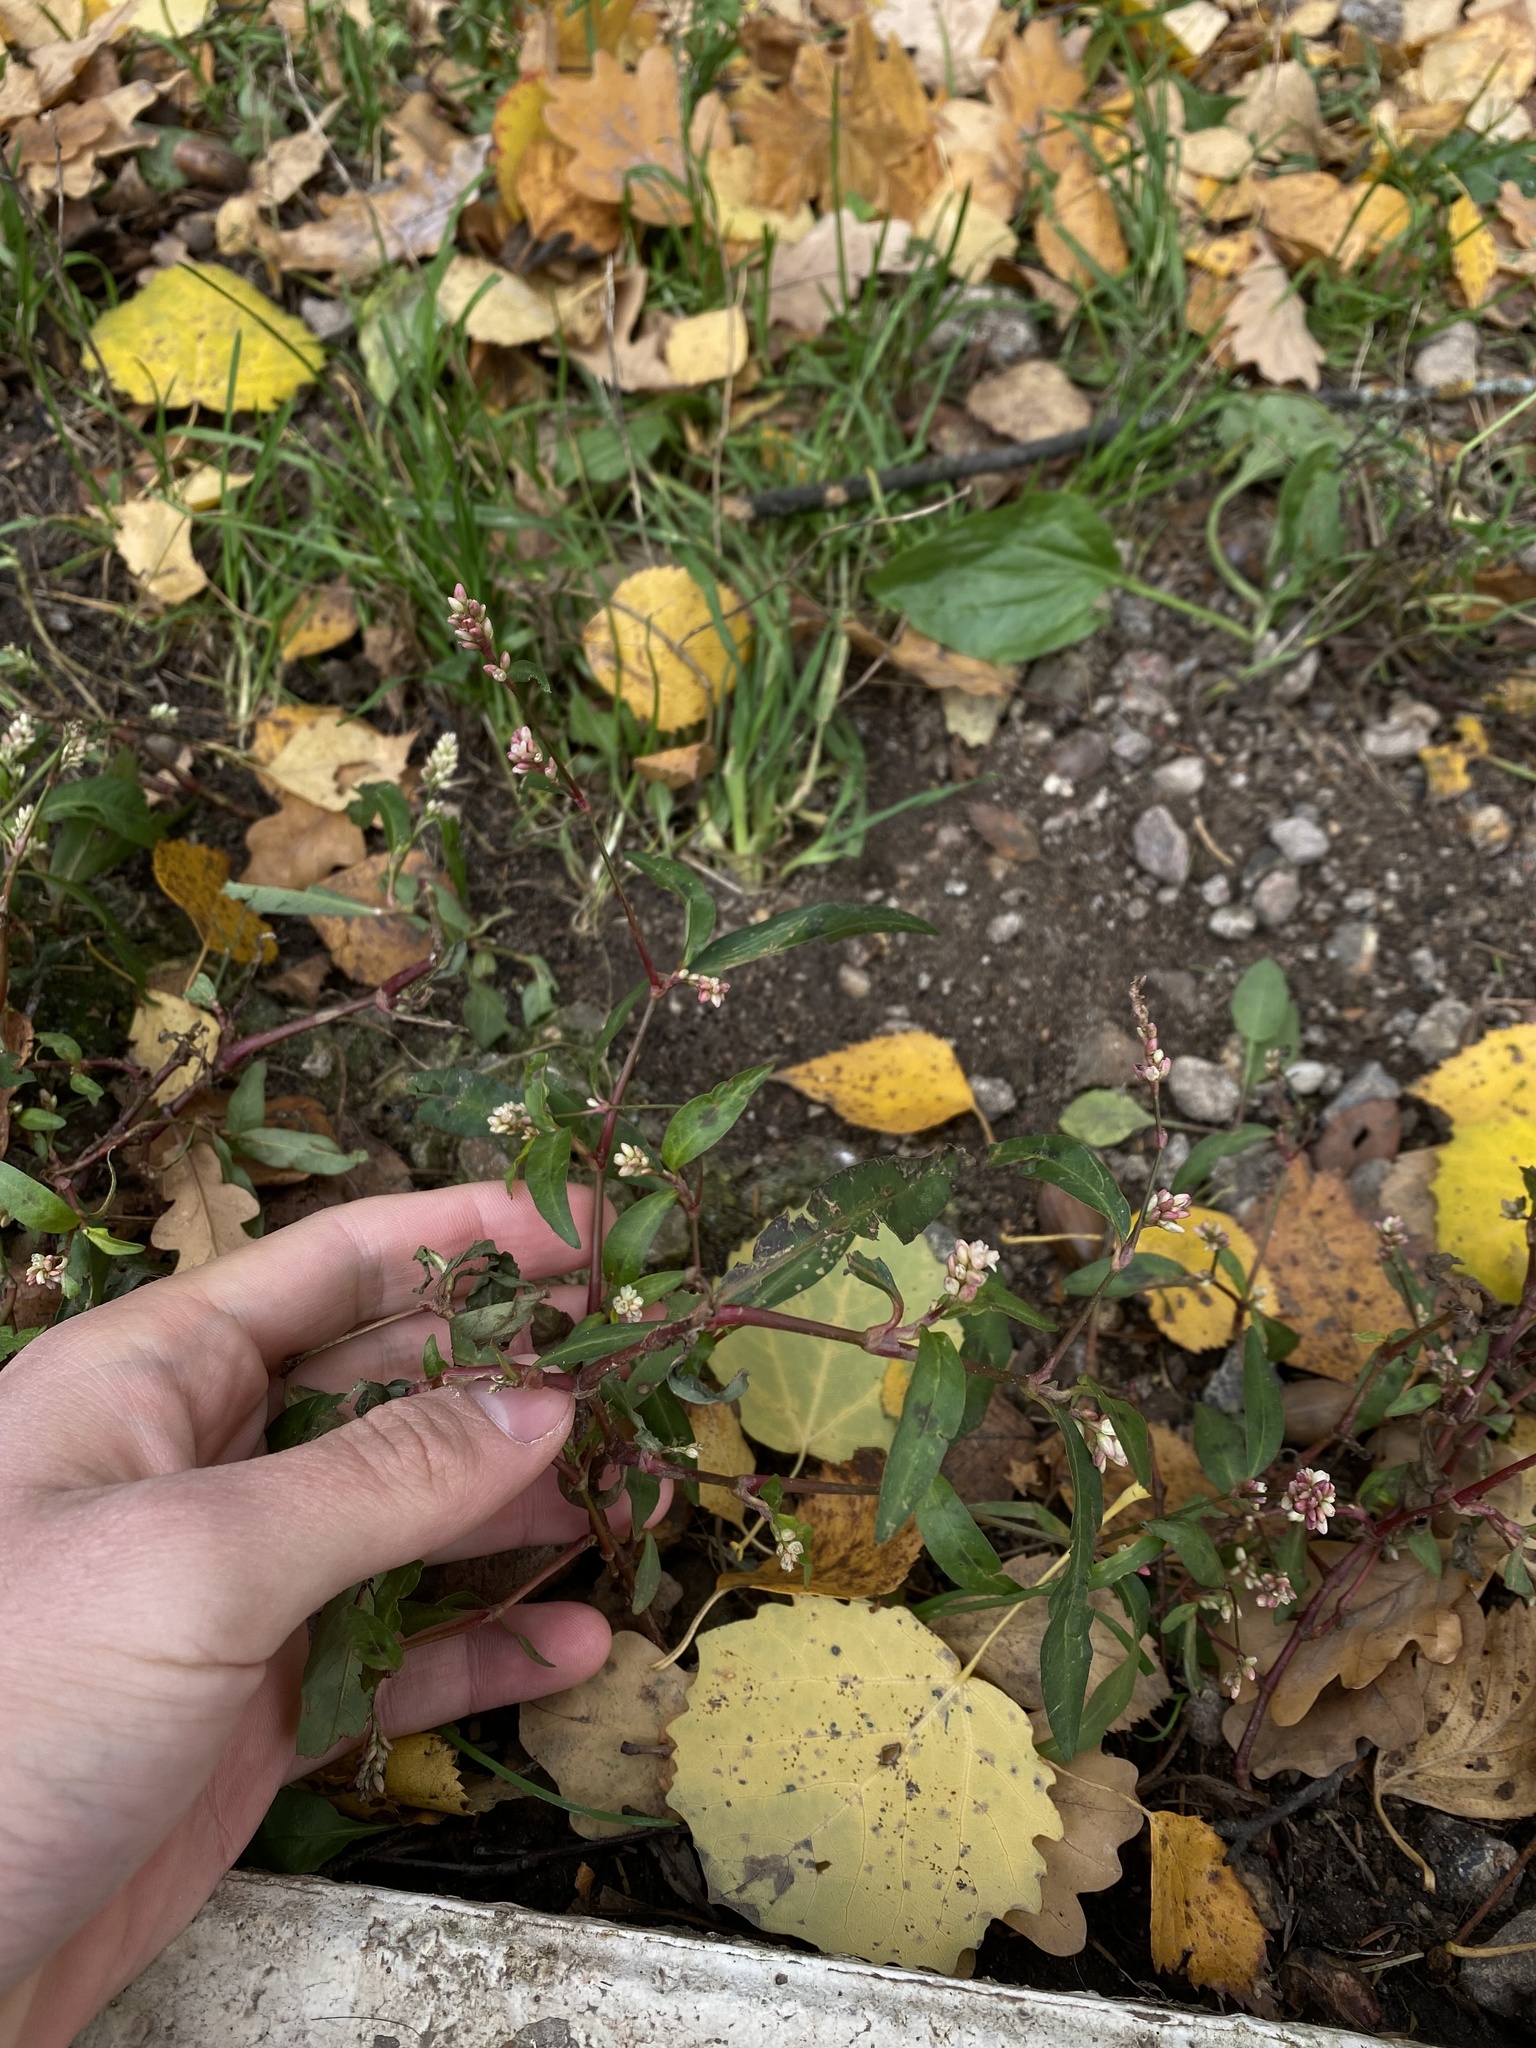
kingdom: Plantae
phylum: Tracheophyta
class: Magnoliopsida
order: Caryophyllales
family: Polygonaceae
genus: Persicaria
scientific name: Persicaria maculosa
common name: Redshank
